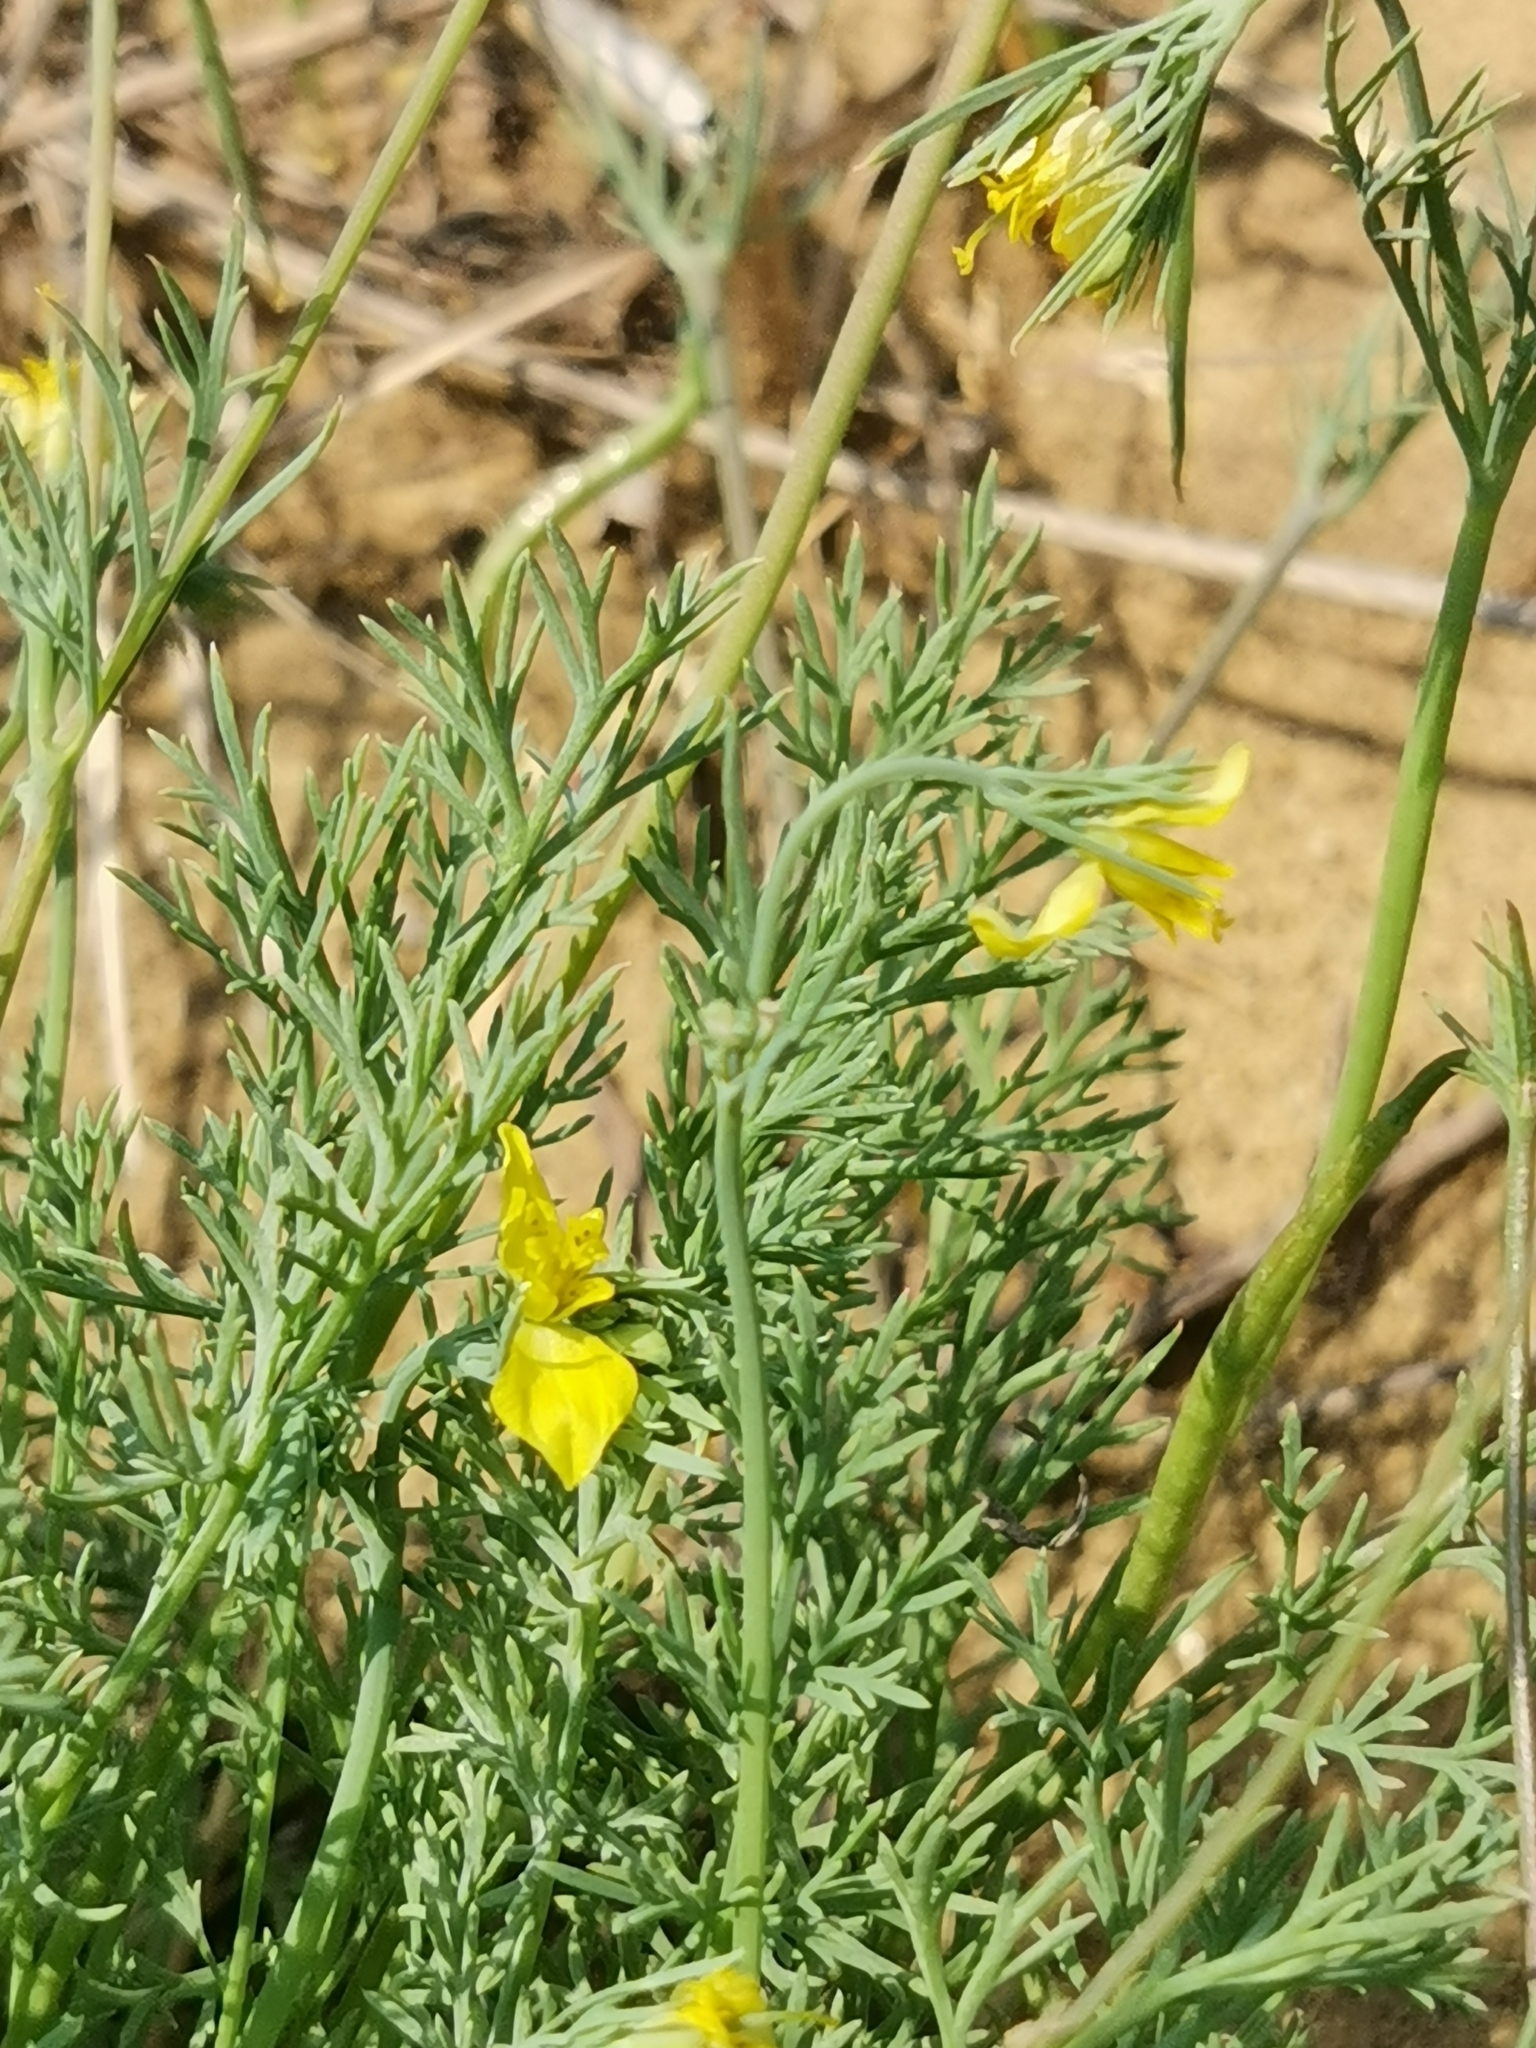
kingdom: Plantae
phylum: Tracheophyta
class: Magnoliopsida
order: Ranunculales
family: Papaveraceae
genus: Hypecoum
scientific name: Hypecoum pendulum
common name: Nodding hypecoum
